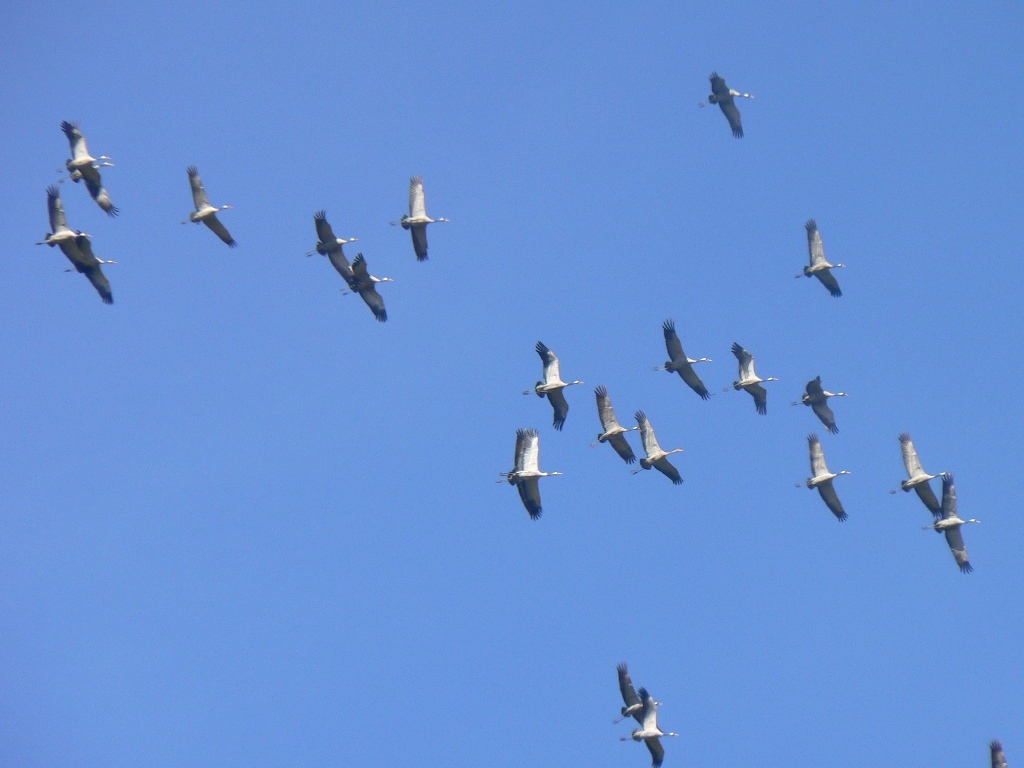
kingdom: Animalia
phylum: Chordata
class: Aves
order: Gruiformes
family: Gruidae
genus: Grus
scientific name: Grus grus
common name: Common crane
